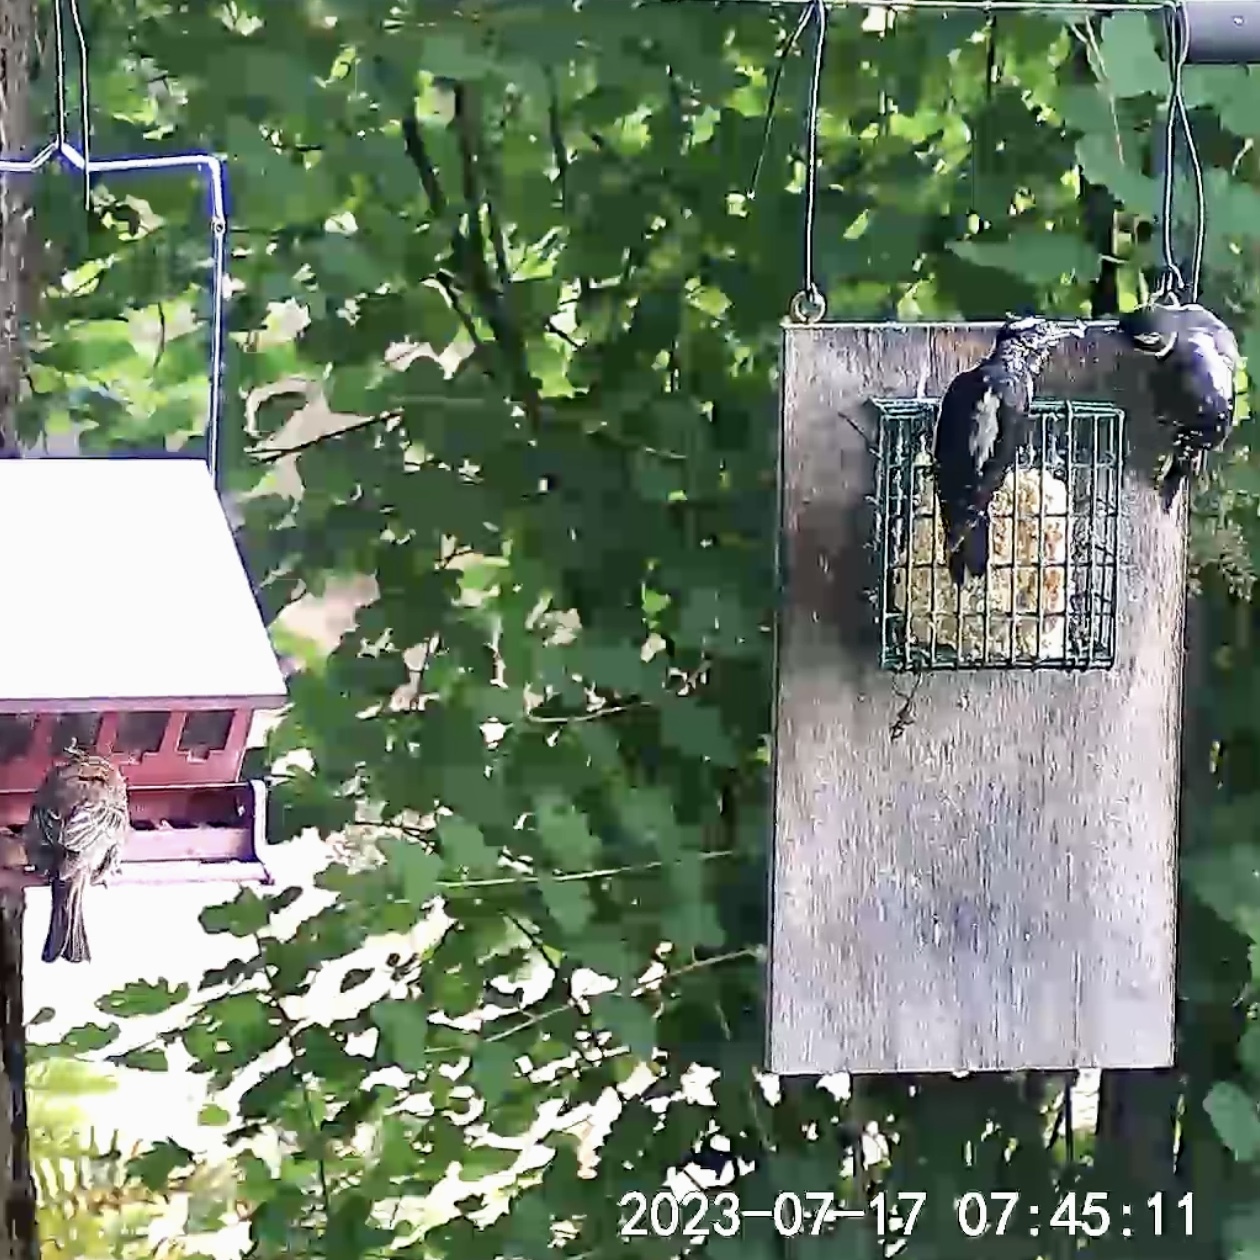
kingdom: Animalia
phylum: Chordata
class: Aves
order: Piciformes
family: Picidae
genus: Dryobates
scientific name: Dryobates pubescens
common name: Downy woodpecker
